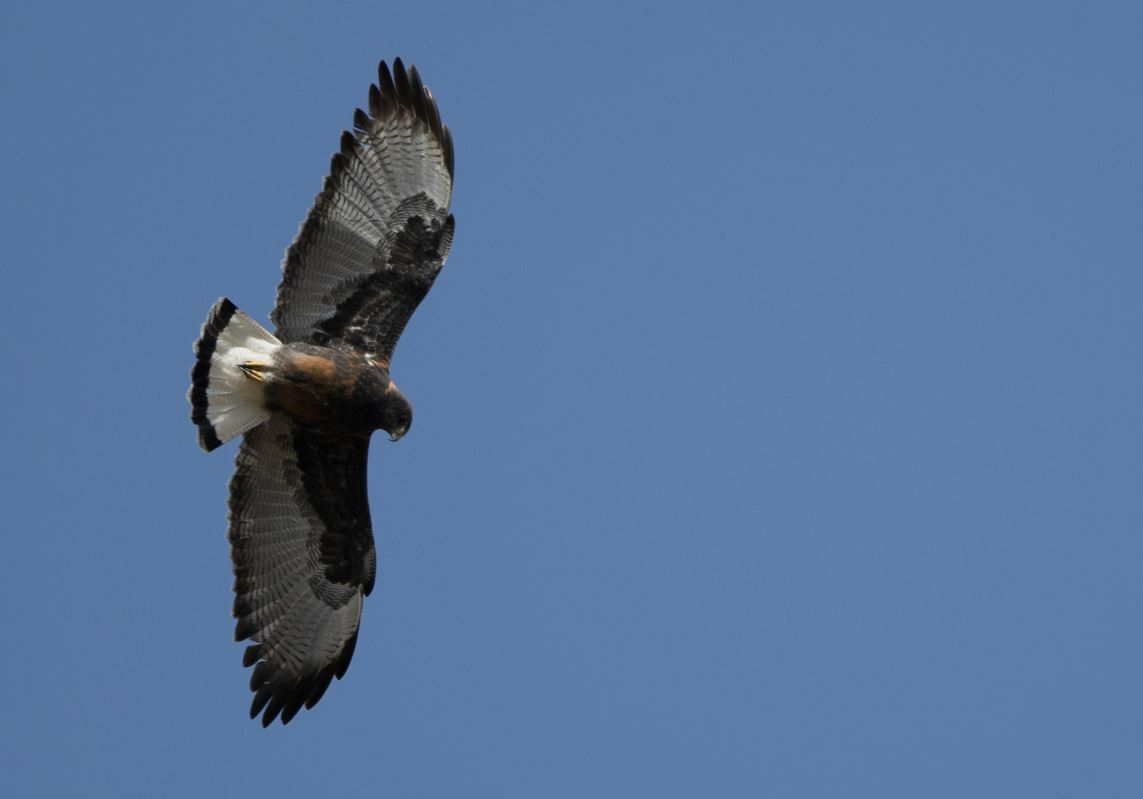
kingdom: Animalia
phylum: Chordata
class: Aves
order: Accipitriformes
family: Accipitridae
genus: Buteo
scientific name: Buteo polyosoma
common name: Variable hawk
